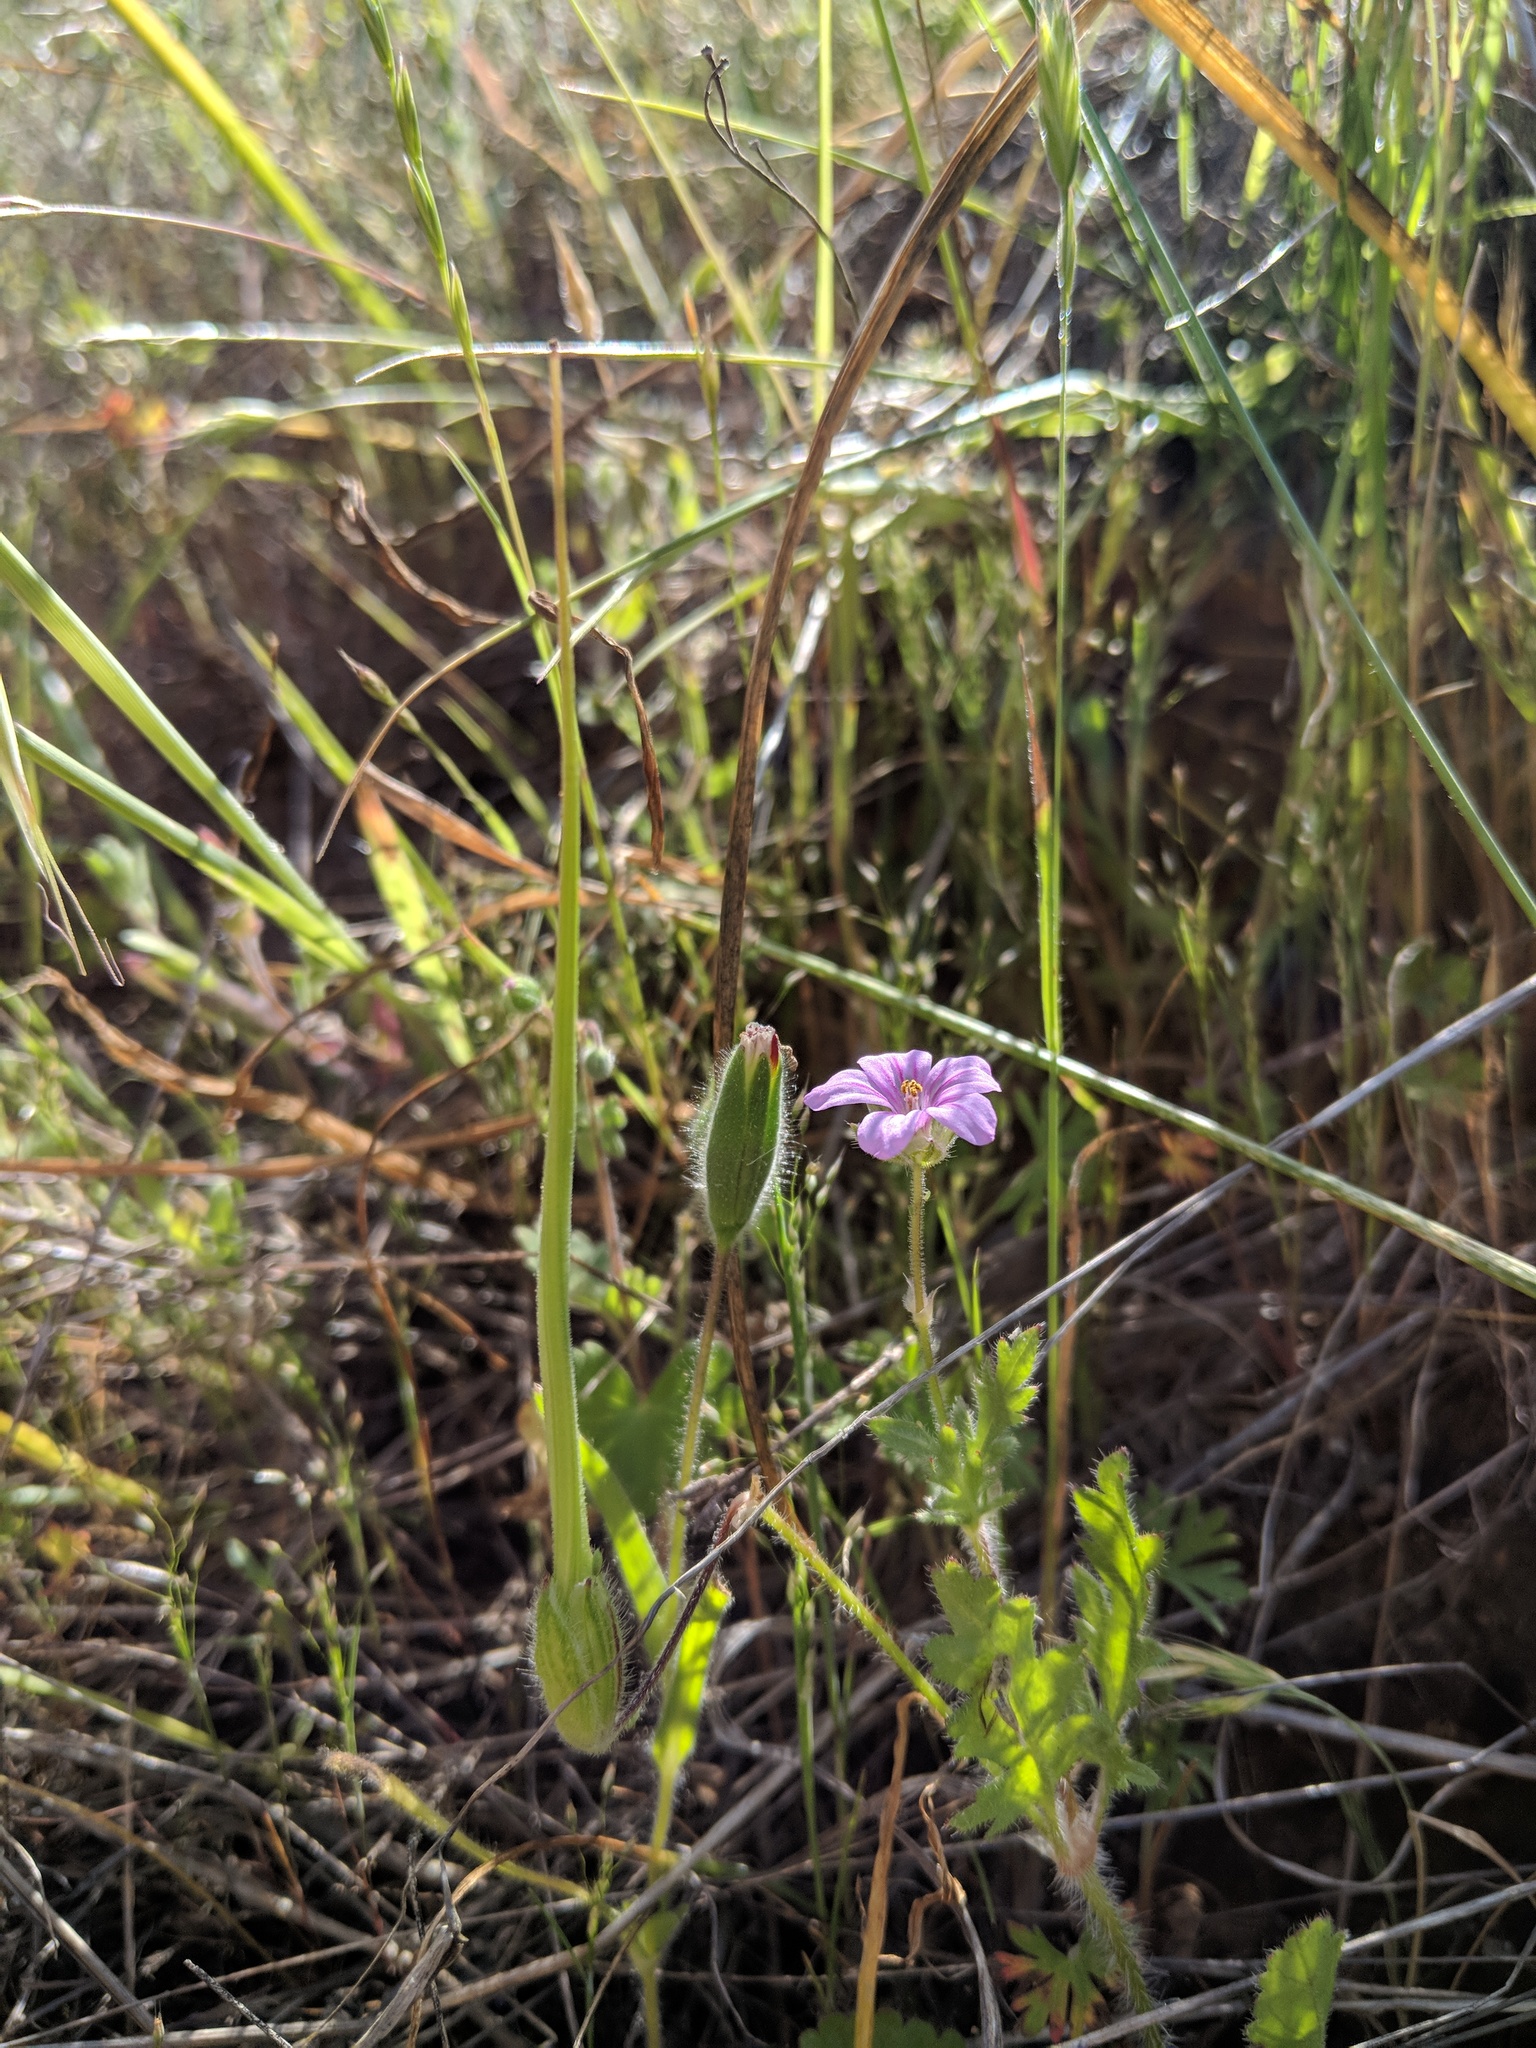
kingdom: Plantae
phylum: Tracheophyta
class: Magnoliopsida
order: Geraniales
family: Geraniaceae
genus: Erodium
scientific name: Erodium botrys
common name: Mediterranean stork's-bill
